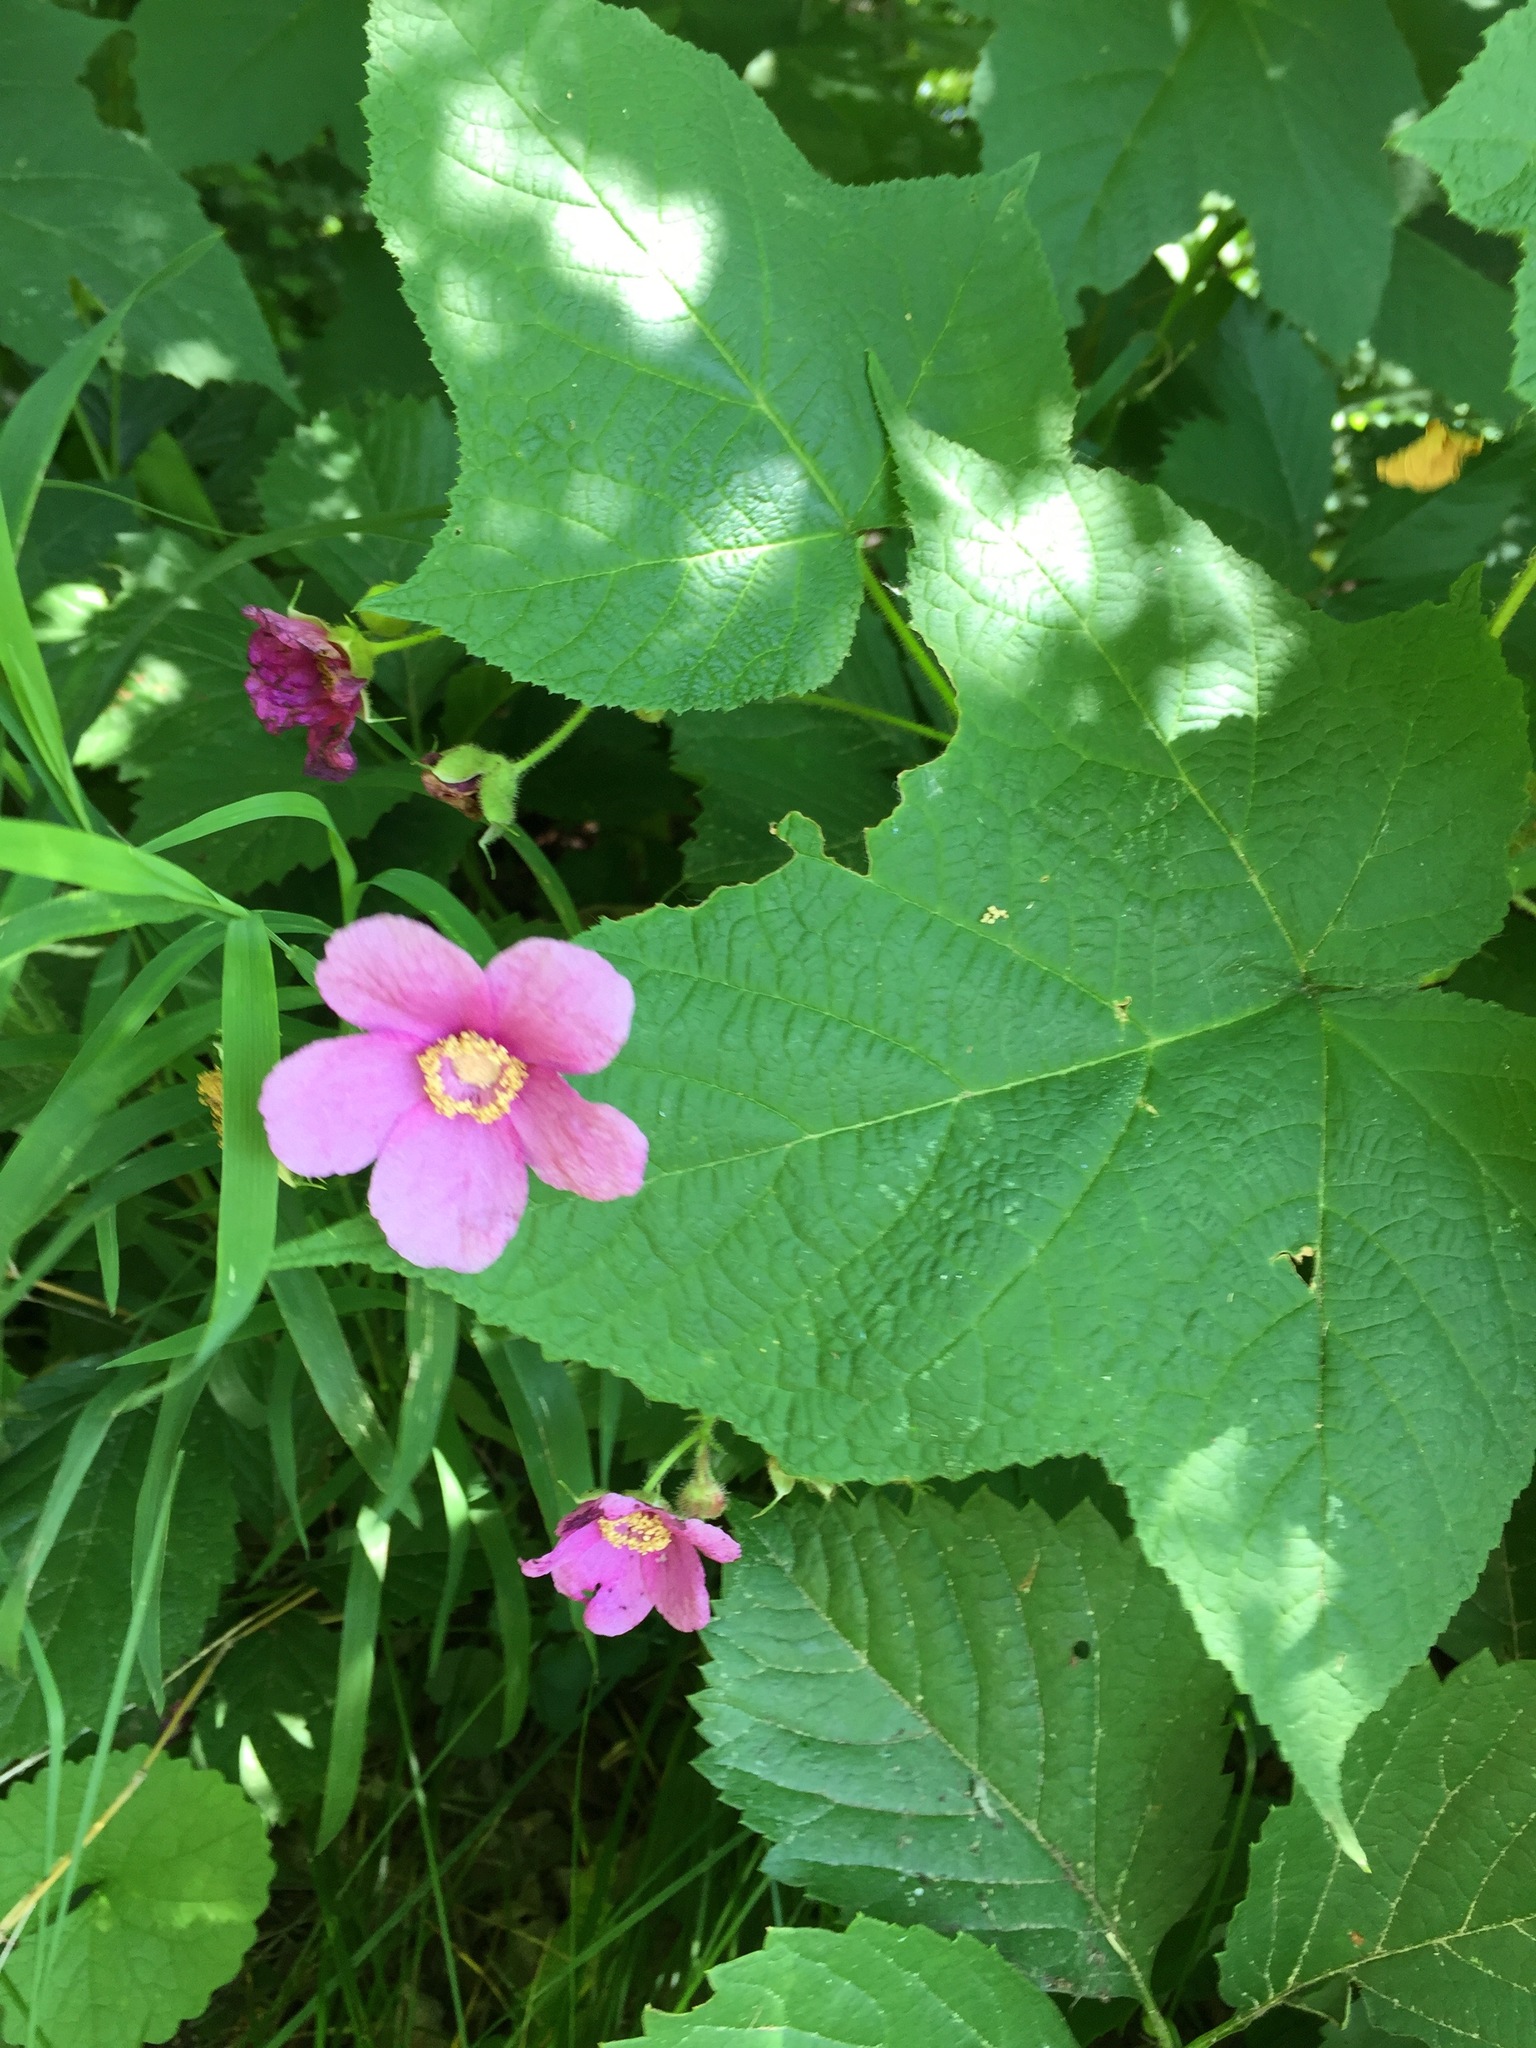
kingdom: Plantae
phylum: Tracheophyta
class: Magnoliopsida
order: Rosales
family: Rosaceae
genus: Rubus
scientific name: Rubus odoratus
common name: Purple-flowered raspberry
